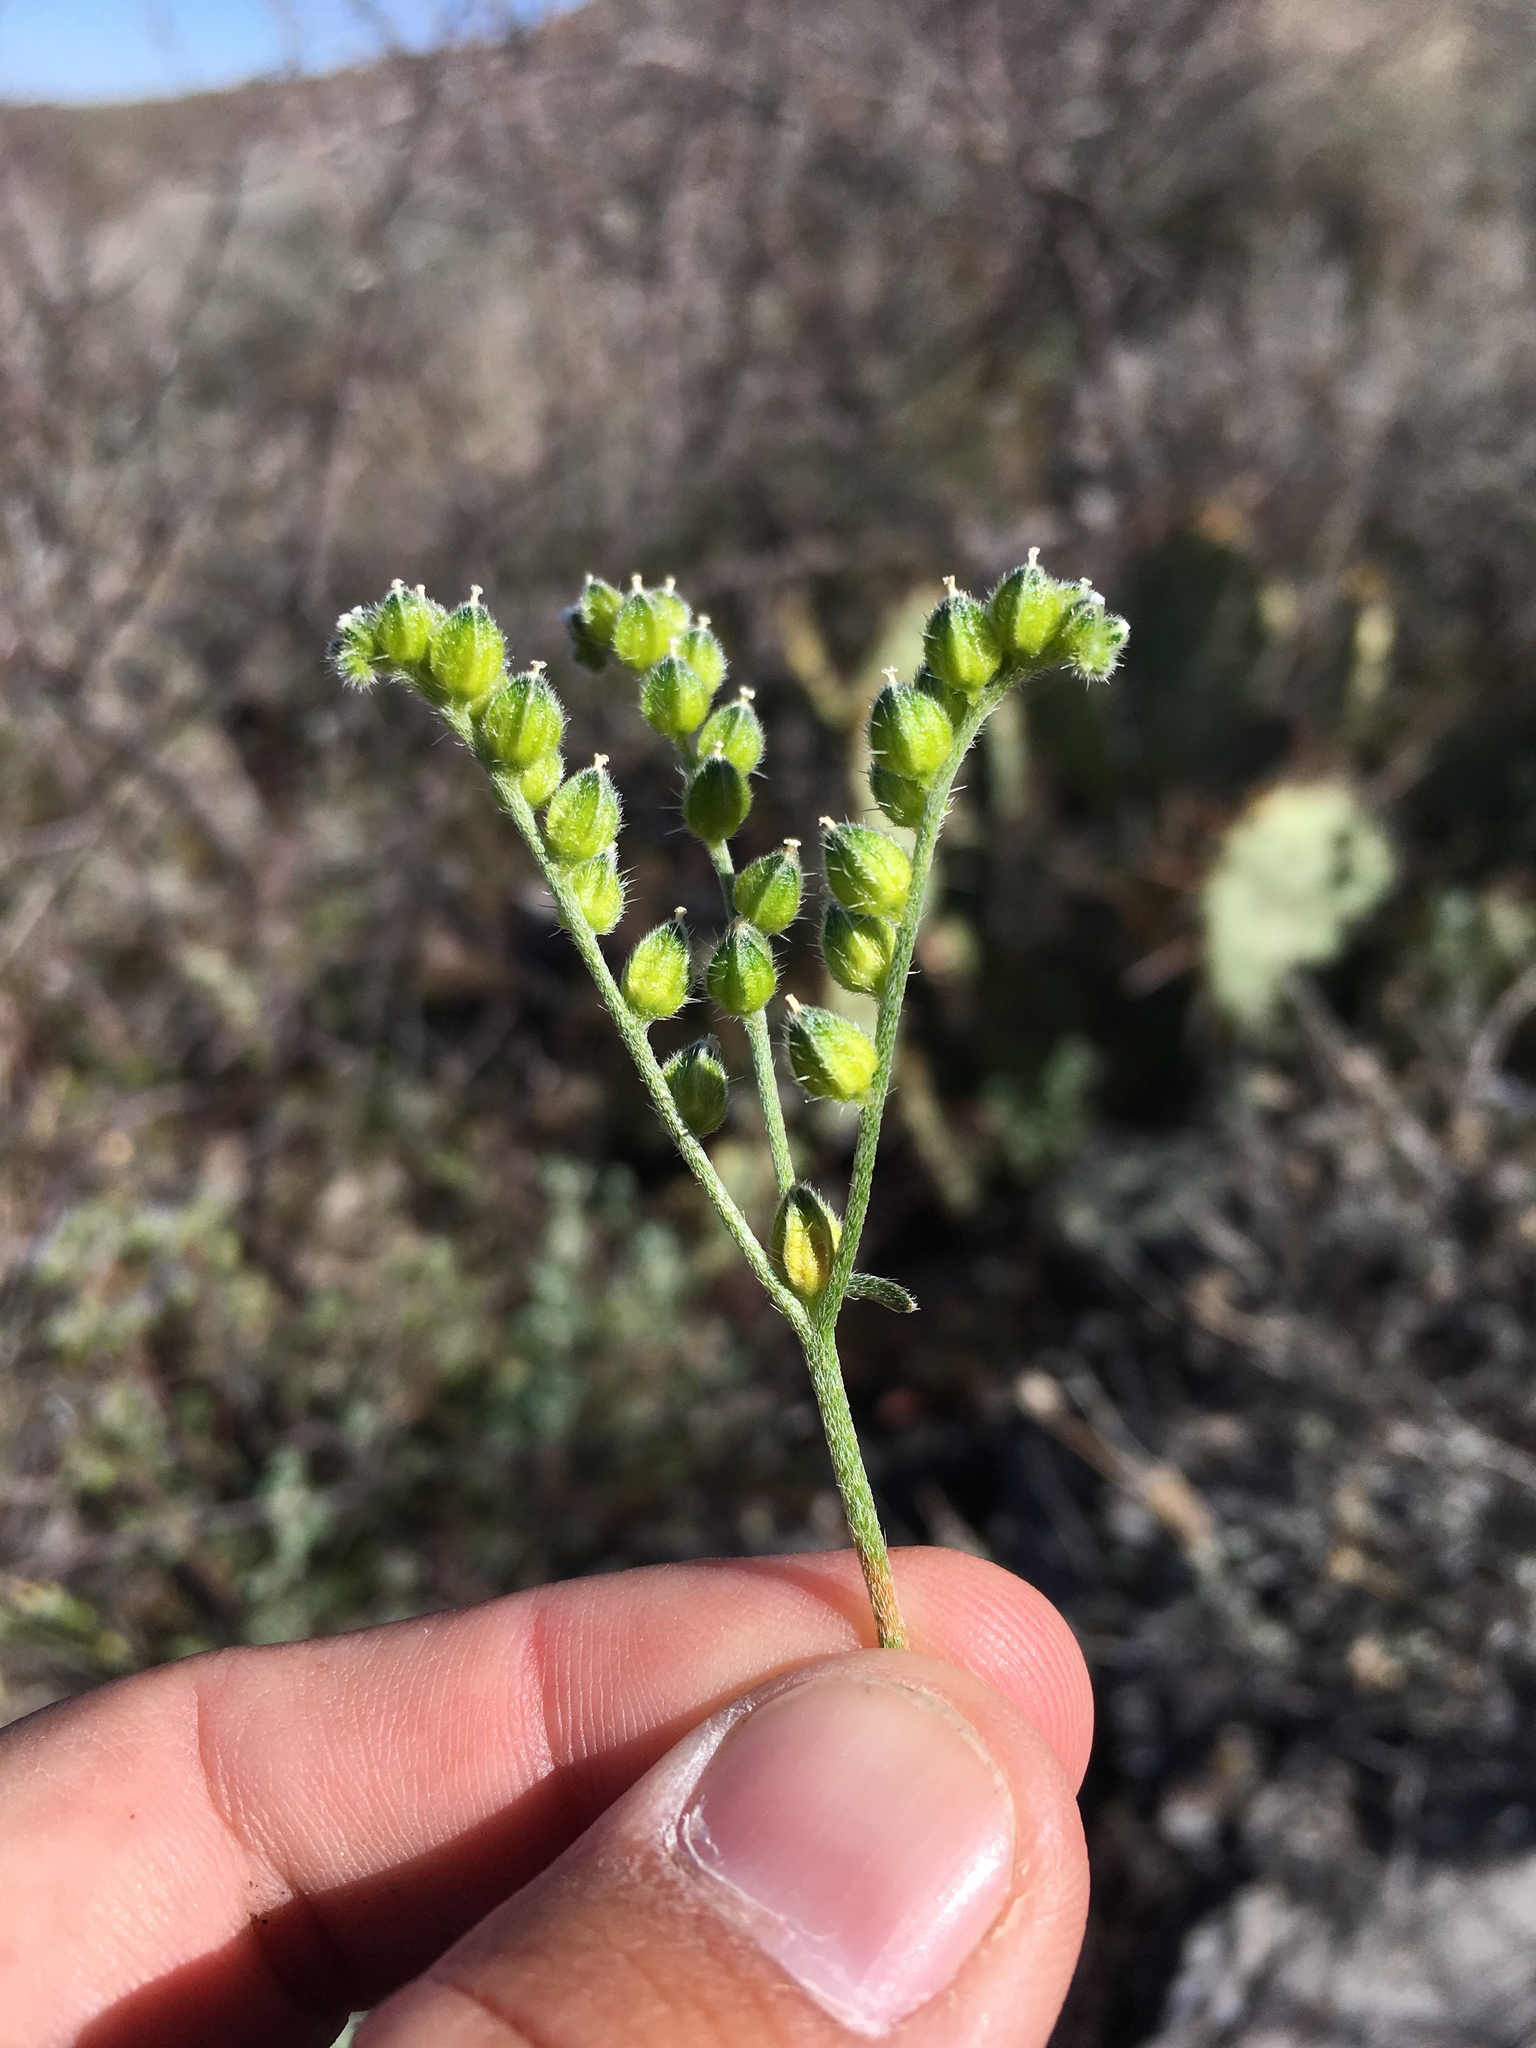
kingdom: Plantae
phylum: Tracheophyta
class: Magnoliopsida
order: Boraginales
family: Boraginaceae
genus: Cryptantha
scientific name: Cryptantha pterocarya
